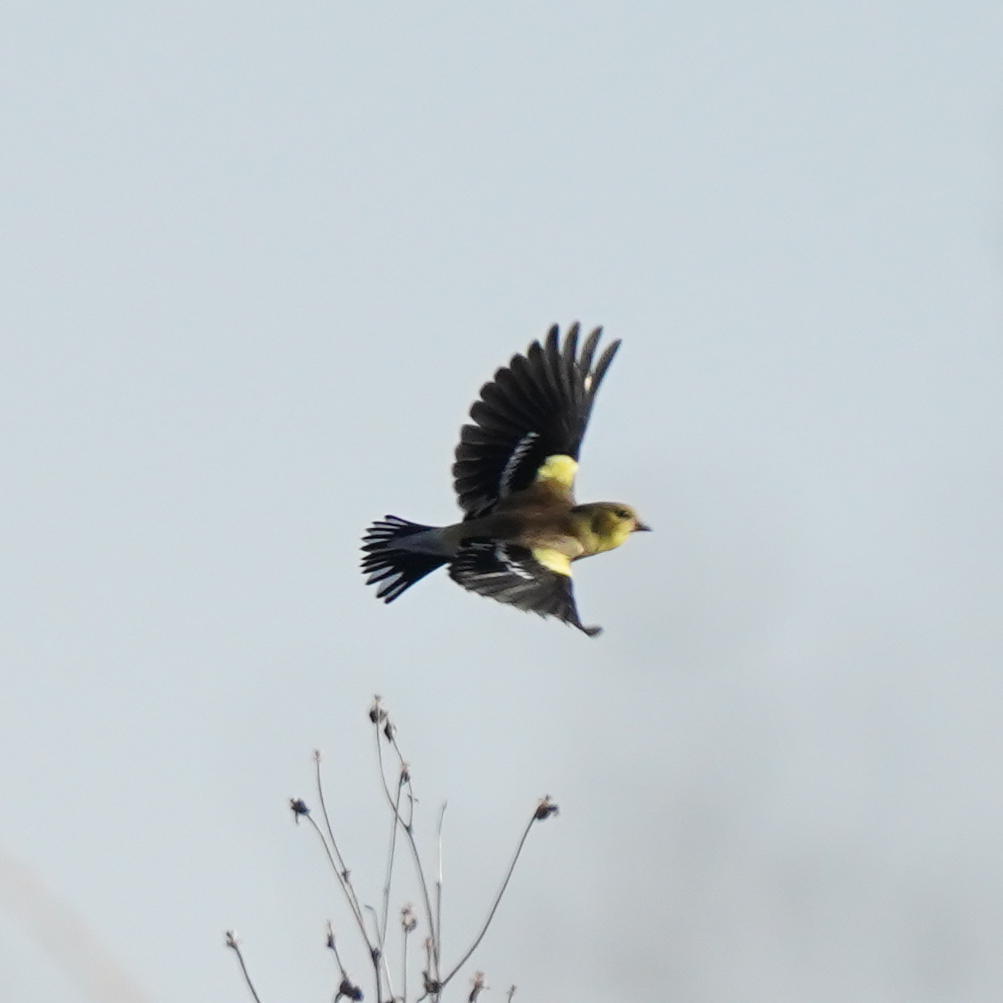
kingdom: Animalia
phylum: Chordata
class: Aves
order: Passeriformes
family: Fringillidae
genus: Spinus
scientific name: Spinus tristis
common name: American goldfinch
